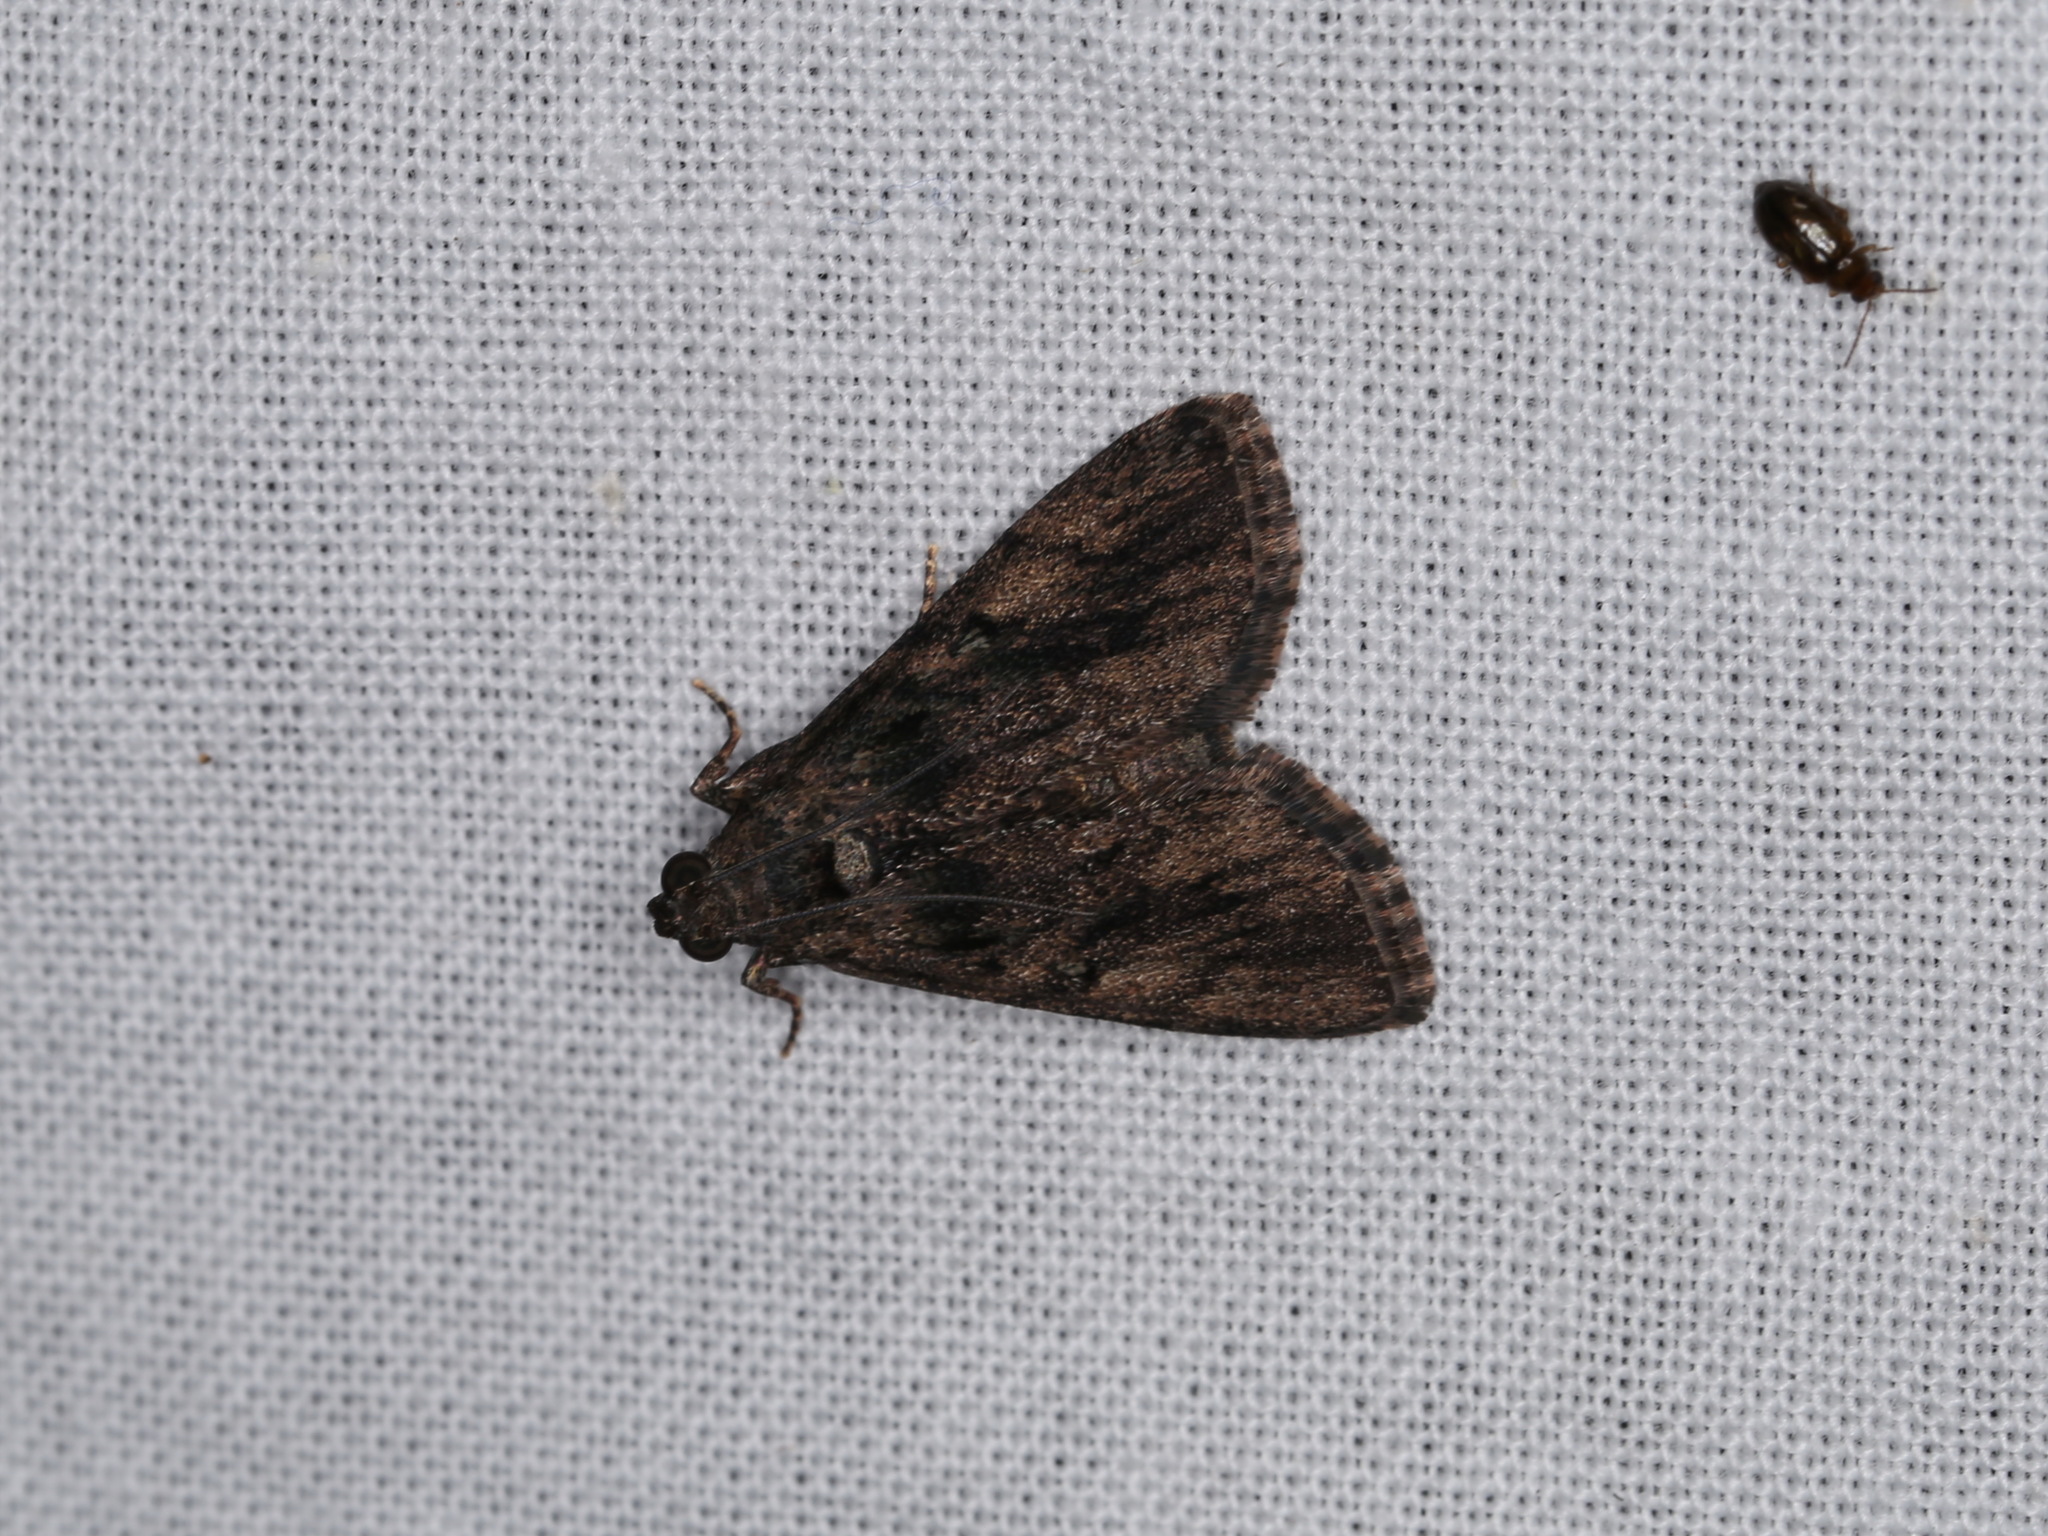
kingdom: Animalia
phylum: Arthropoda
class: Insecta
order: Lepidoptera
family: Pyralidae
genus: Salma
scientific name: Salma cholica
